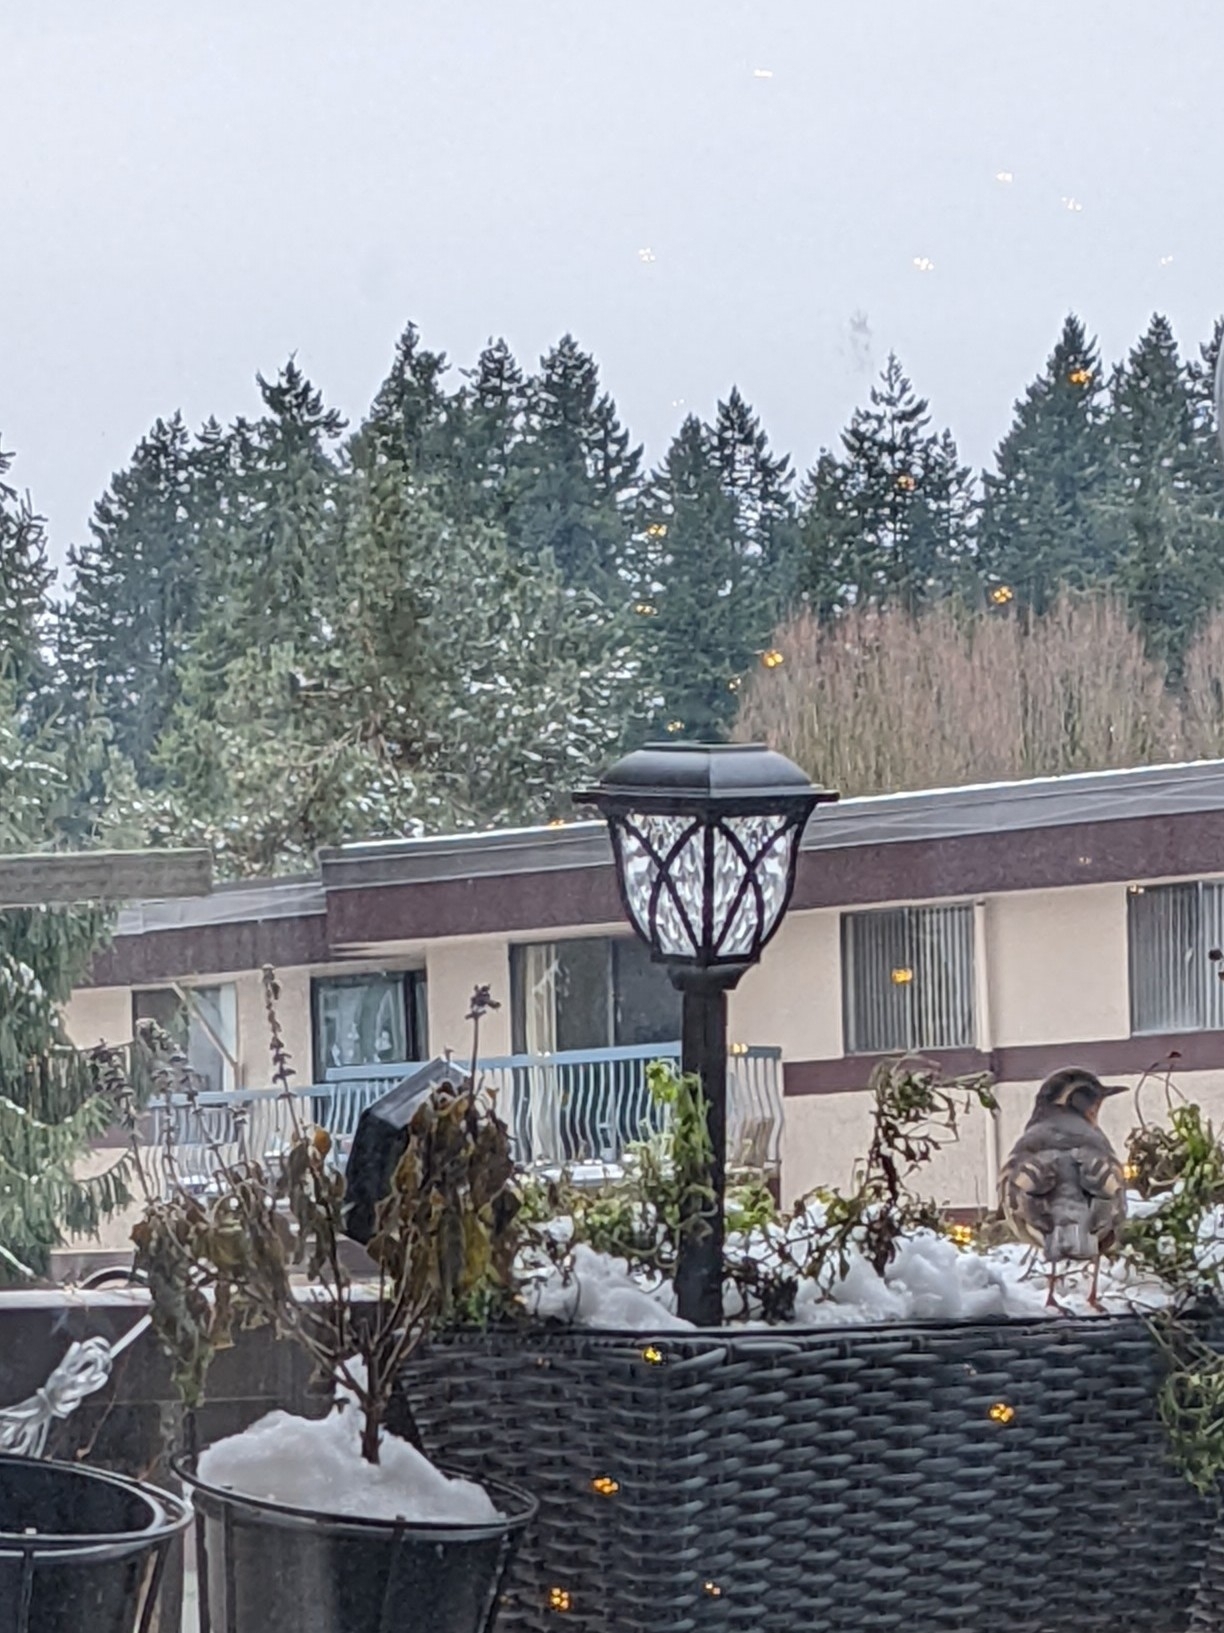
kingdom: Animalia
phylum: Chordata
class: Aves
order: Passeriformes
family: Turdidae
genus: Ixoreus
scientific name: Ixoreus naevius
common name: Varied thrush
